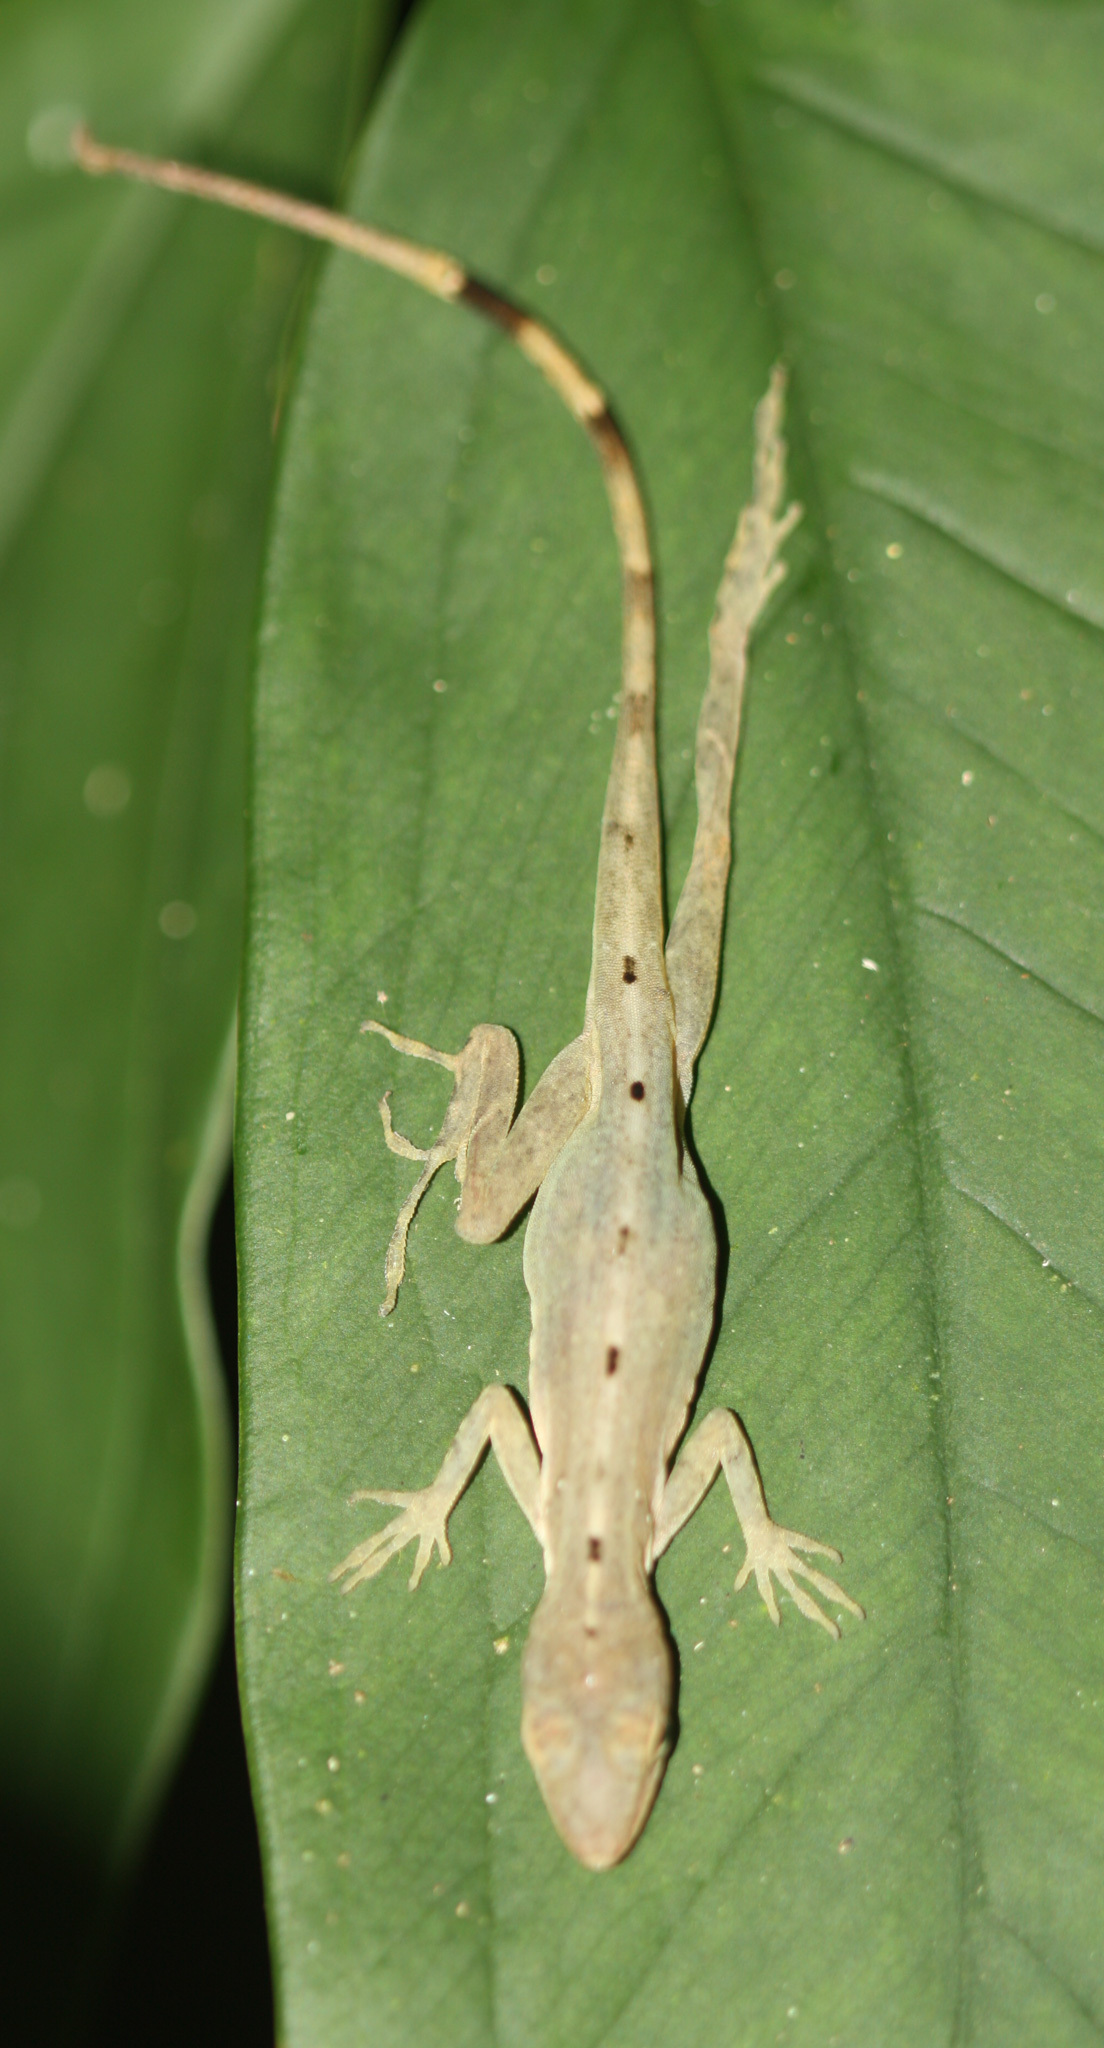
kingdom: Animalia
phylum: Chordata
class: Squamata
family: Dactyloidae
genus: Anolis
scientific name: Anolis limifrons
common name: Border anole
